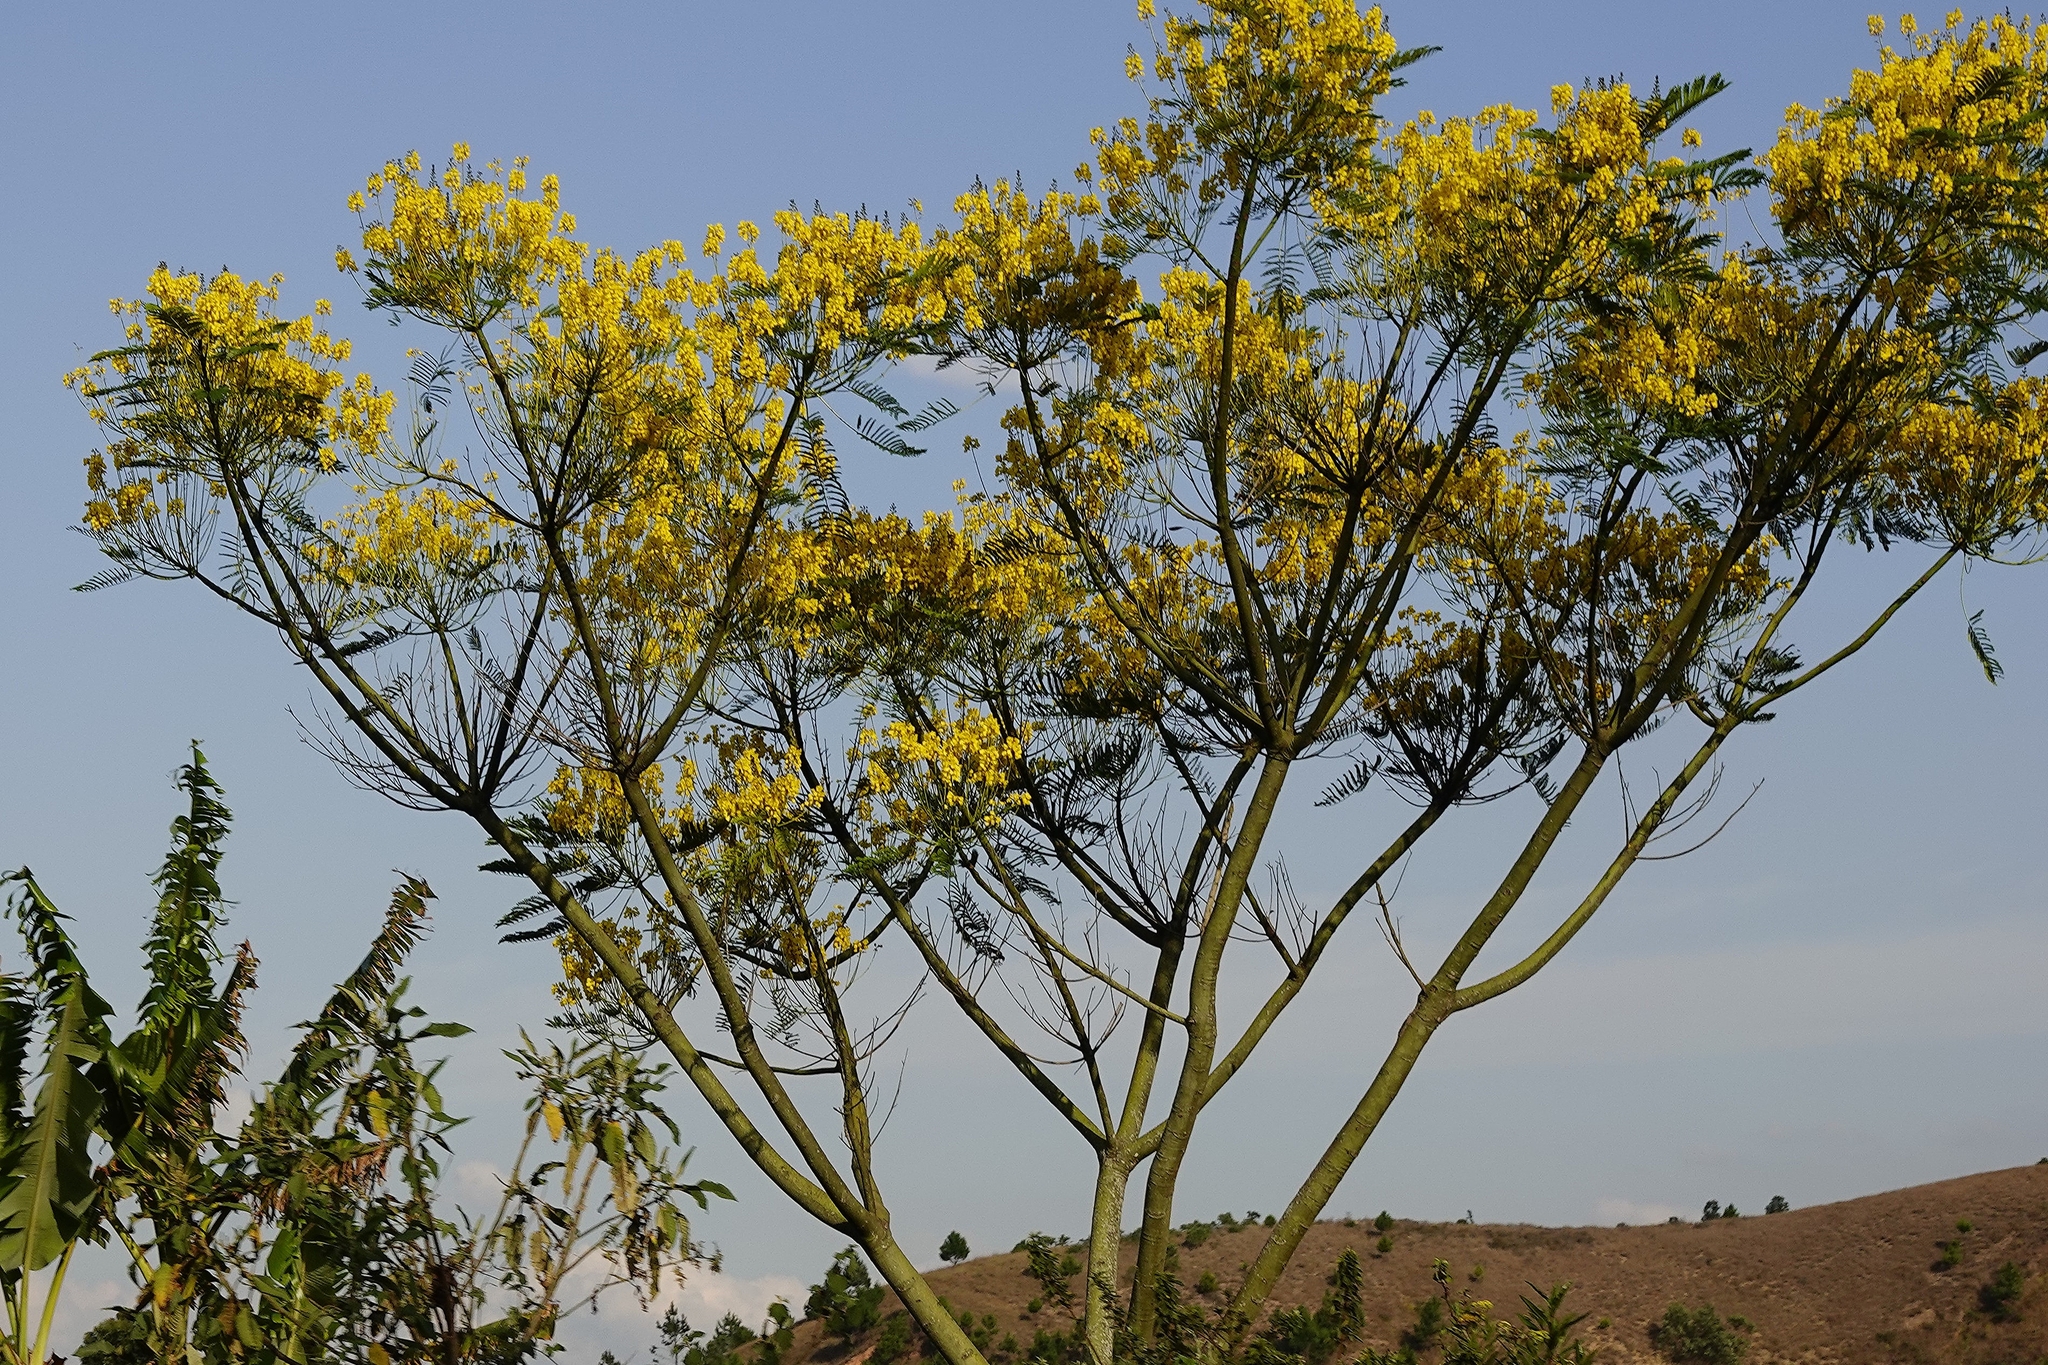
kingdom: Plantae
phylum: Tracheophyta
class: Magnoliopsida
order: Fabales
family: Fabaceae
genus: Schizolobium
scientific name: Schizolobium parahyba
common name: Brazilian firetree
